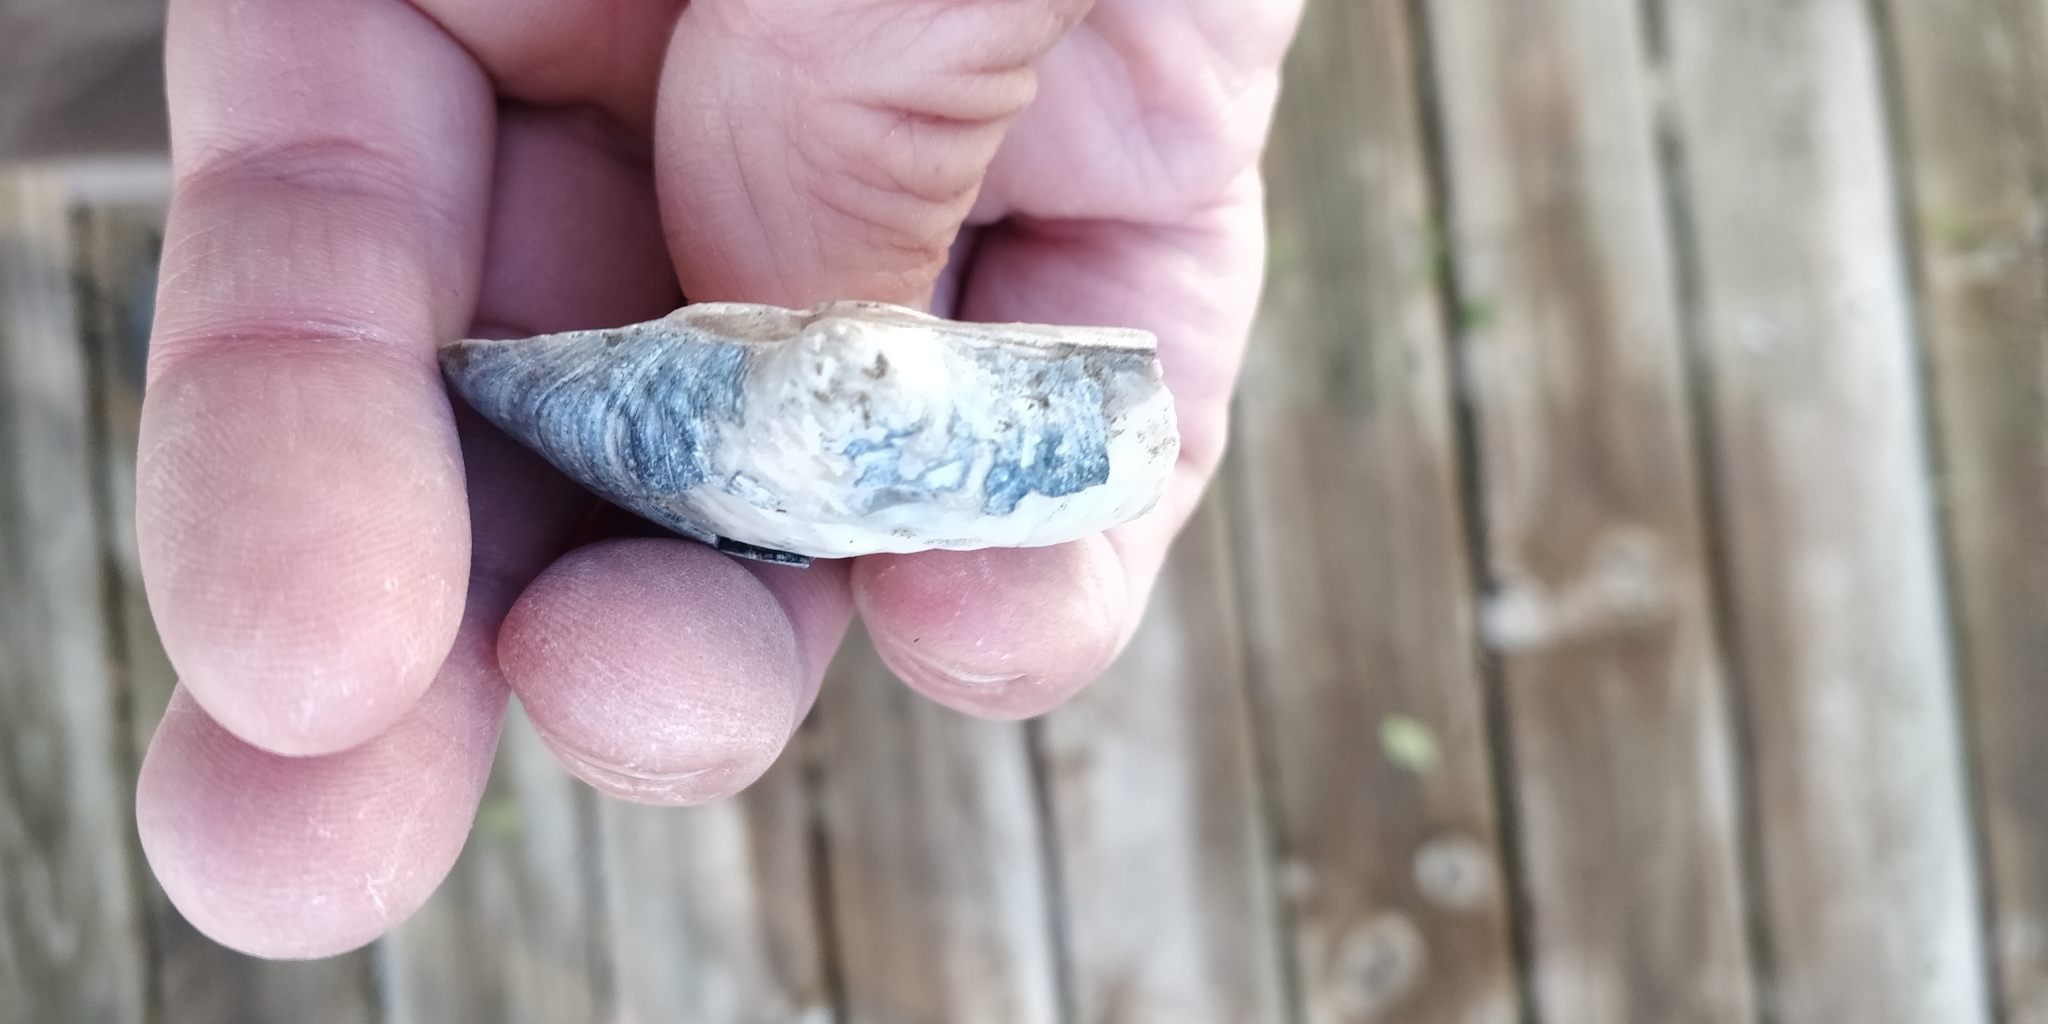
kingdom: Animalia
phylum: Mollusca
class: Bivalvia
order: Unionida
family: Unionidae
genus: Arcidens
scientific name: Arcidens confragosus
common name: Rock pocketbook
